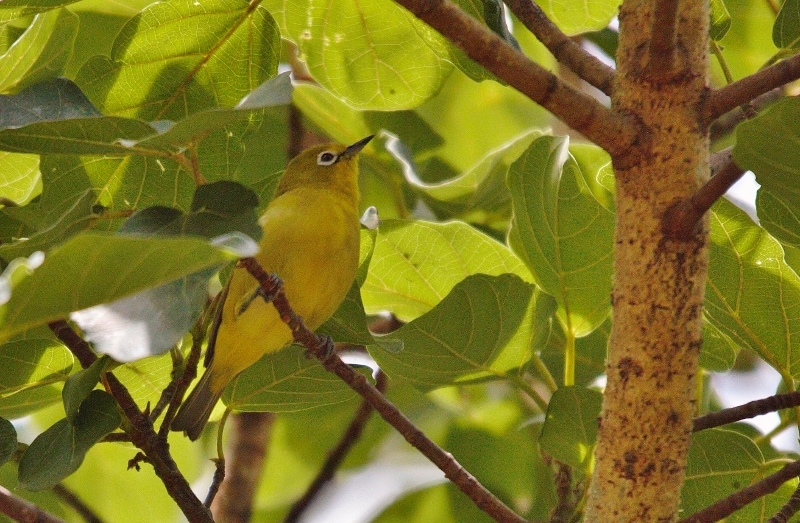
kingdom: Animalia
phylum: Chordata
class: Aves
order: Passeriformes
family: Zosteropidae
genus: Zosterops
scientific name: Zosterops anderssoni
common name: Southern yellow white-eye
